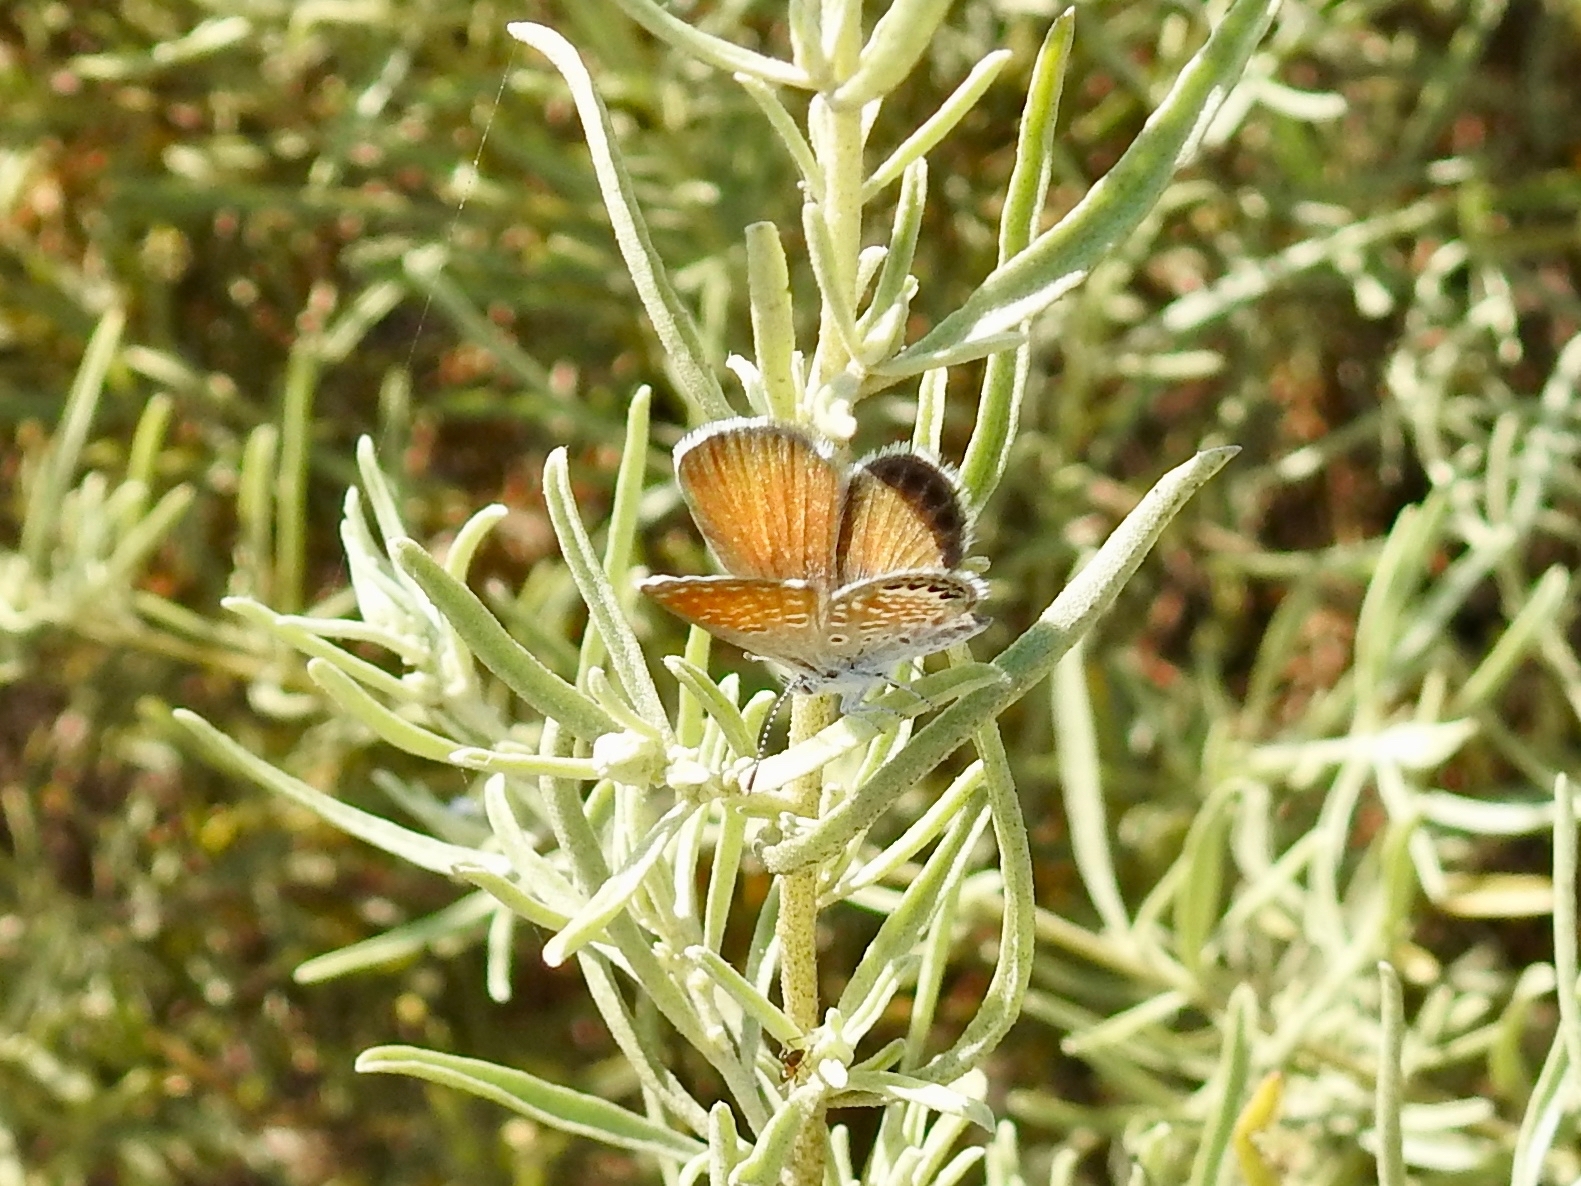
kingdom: Animalia
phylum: Arthropoda
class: Insecta
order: Lepidoptera
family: Lycaenidae
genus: Brephidium
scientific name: Brephidium exilis
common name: Pygmy blue
